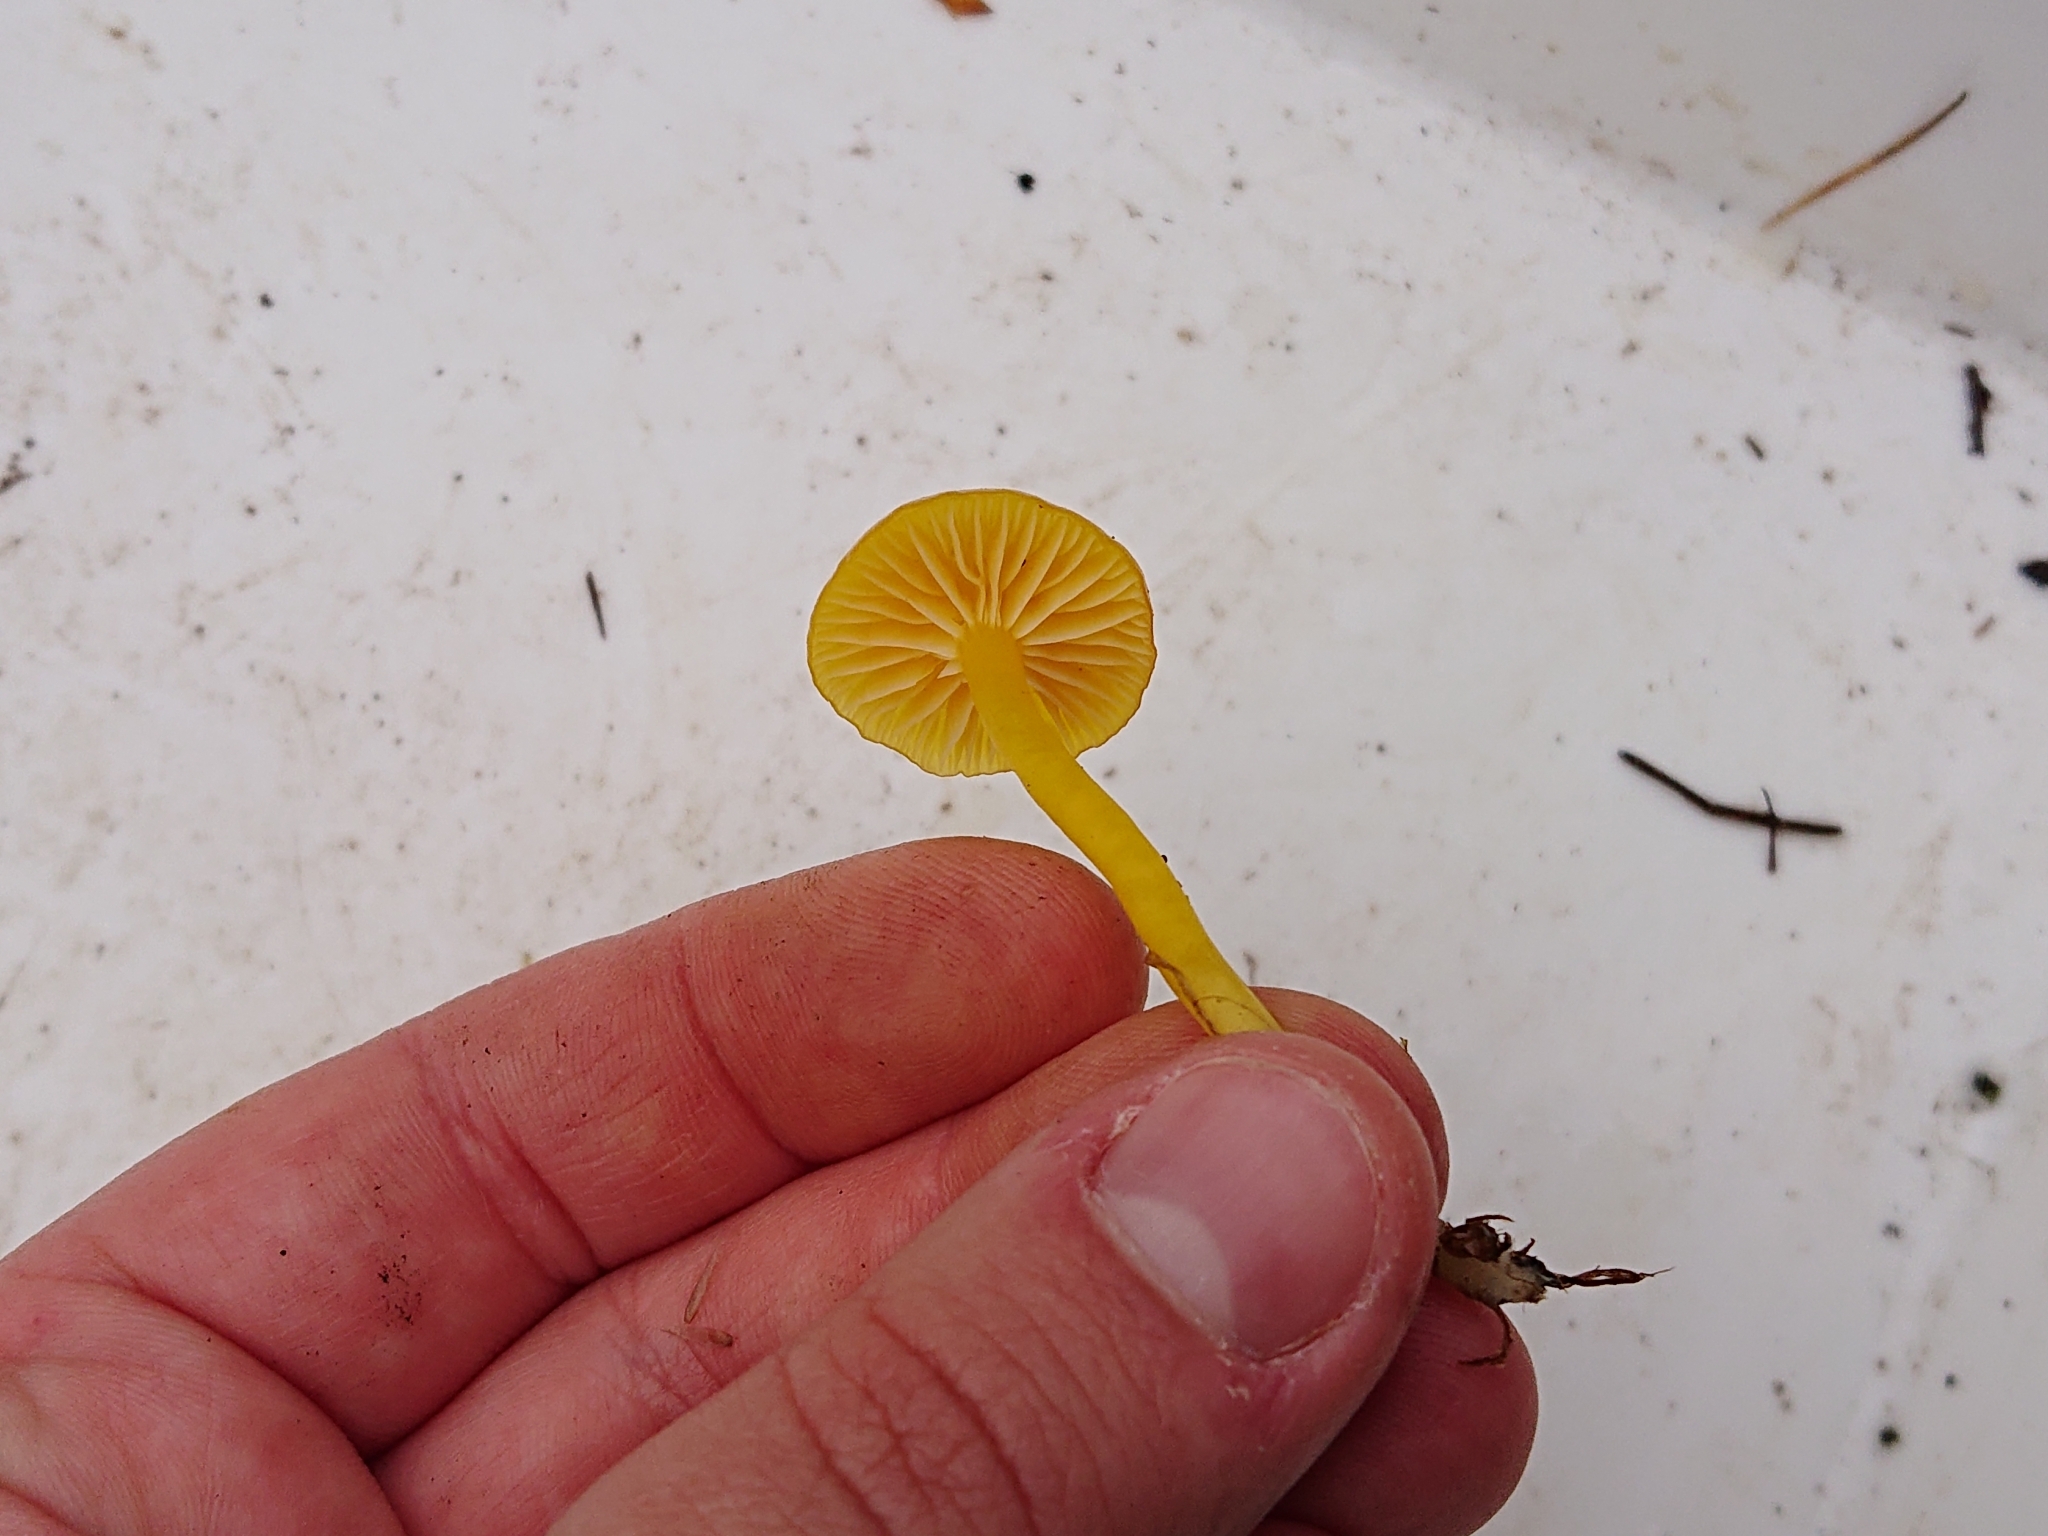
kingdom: Fungi
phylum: Basidiomycota
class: Agaricomycetes
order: Agaricales
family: Hygrophoraceae
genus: Hygrocybe
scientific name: Hygrocybe ceracea
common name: Butter waxcap
